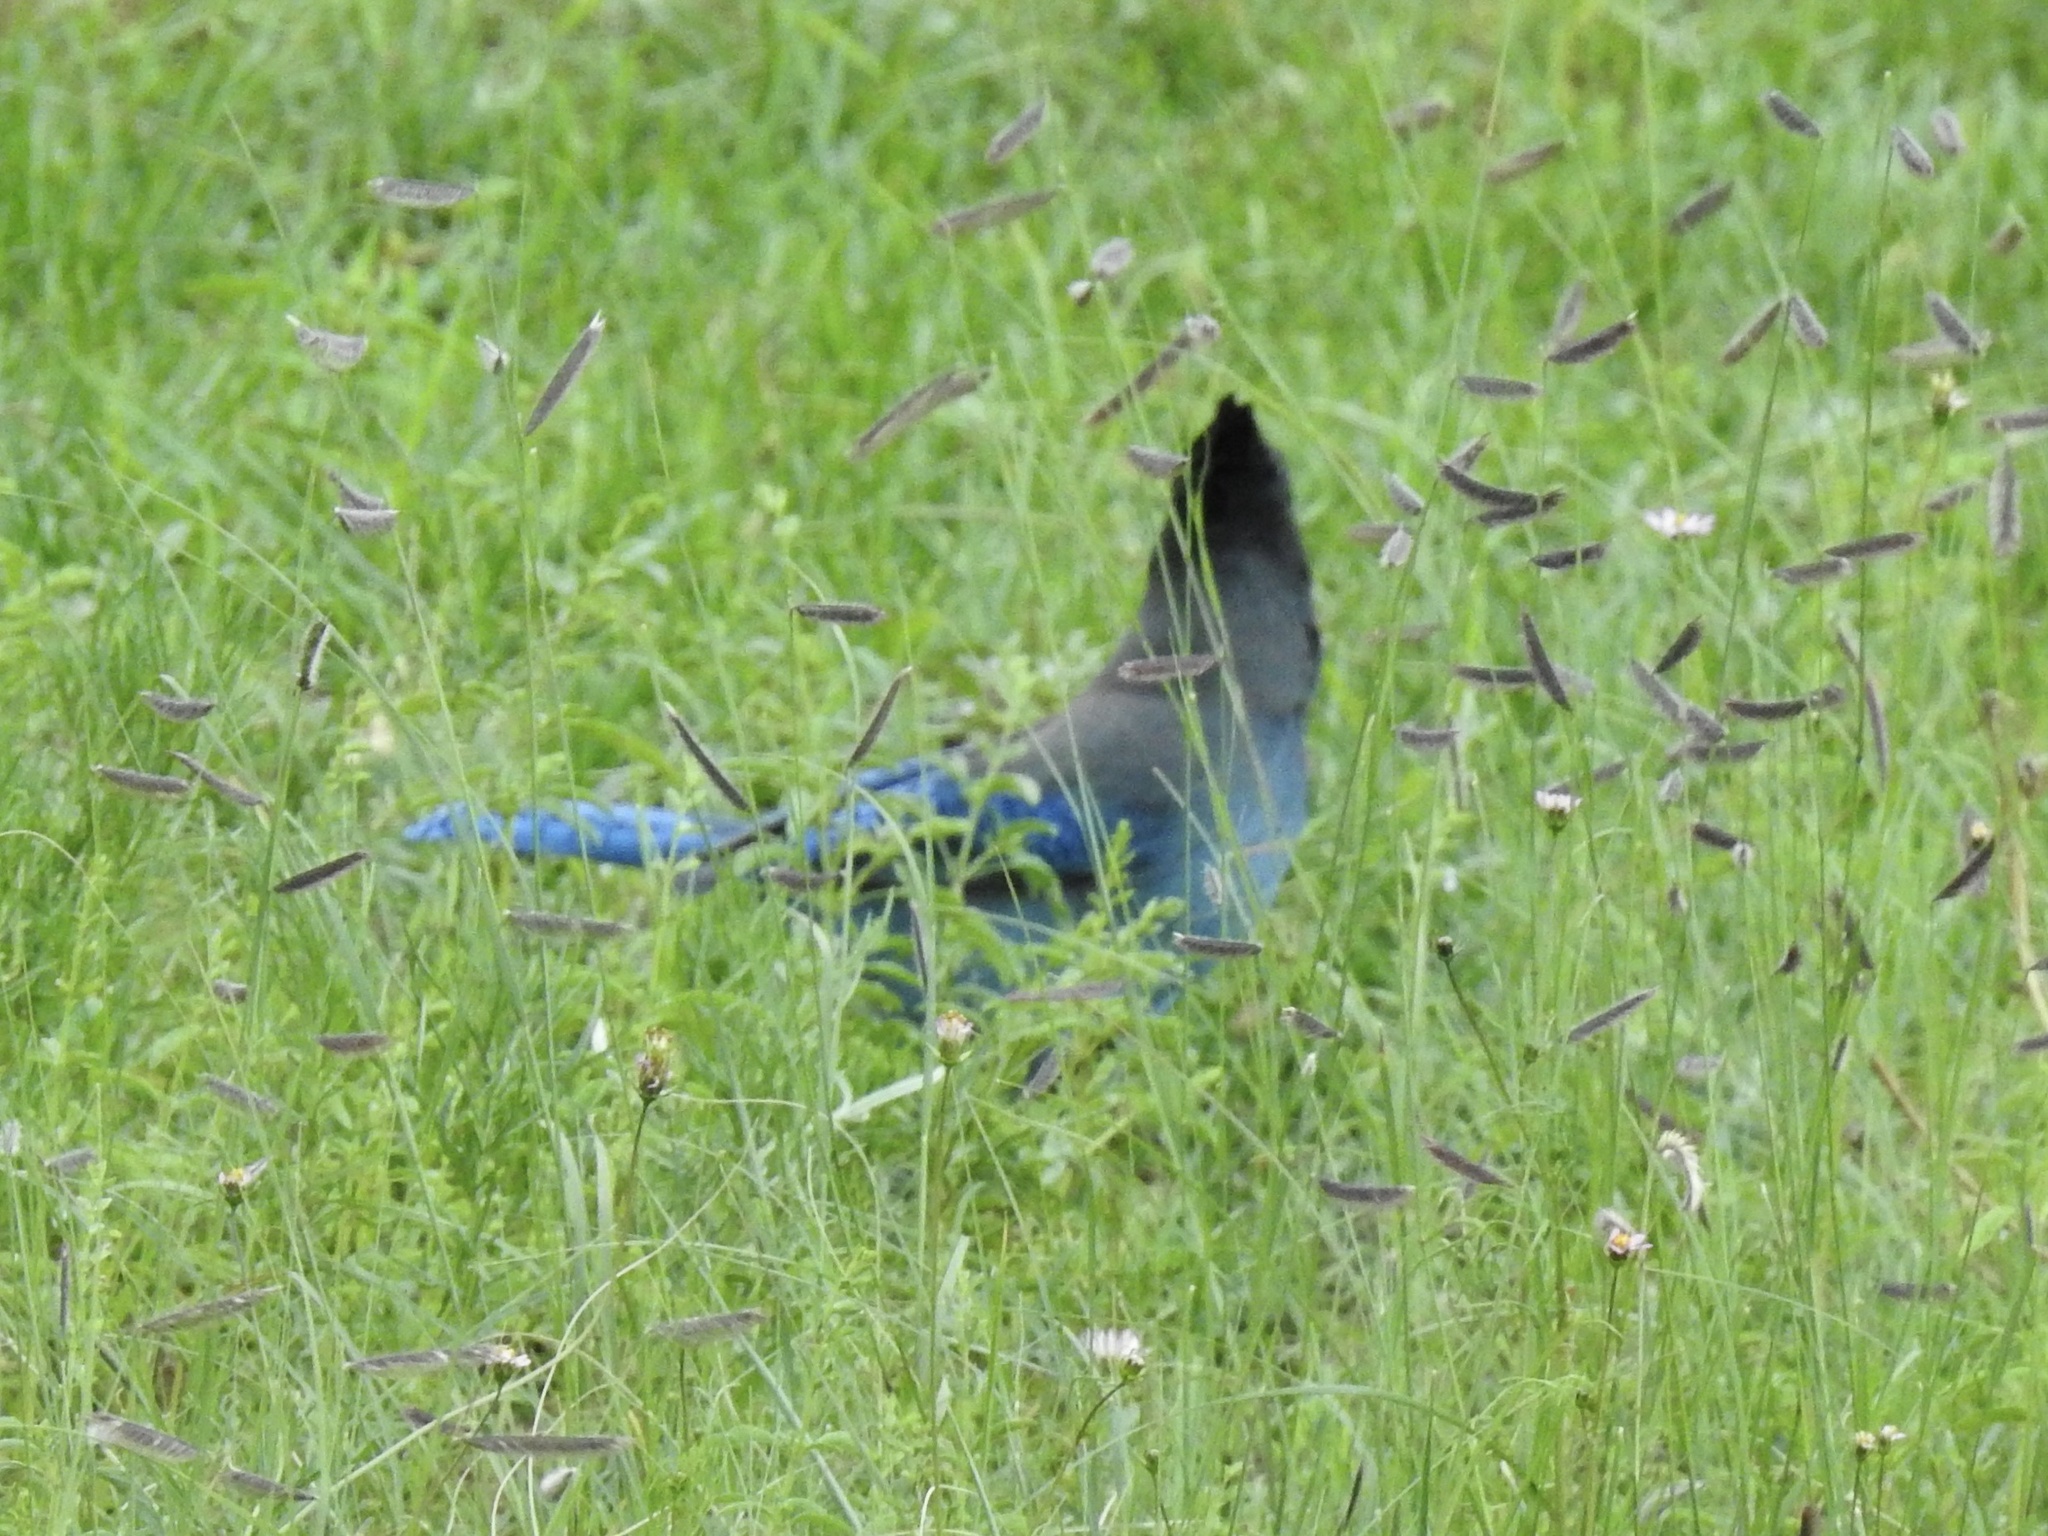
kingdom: Animalia
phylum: Chordata
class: Aves
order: Passeriformes
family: Corvidae
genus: Cyanocitta
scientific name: Cyanocitta stelleri
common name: Steller's jay
